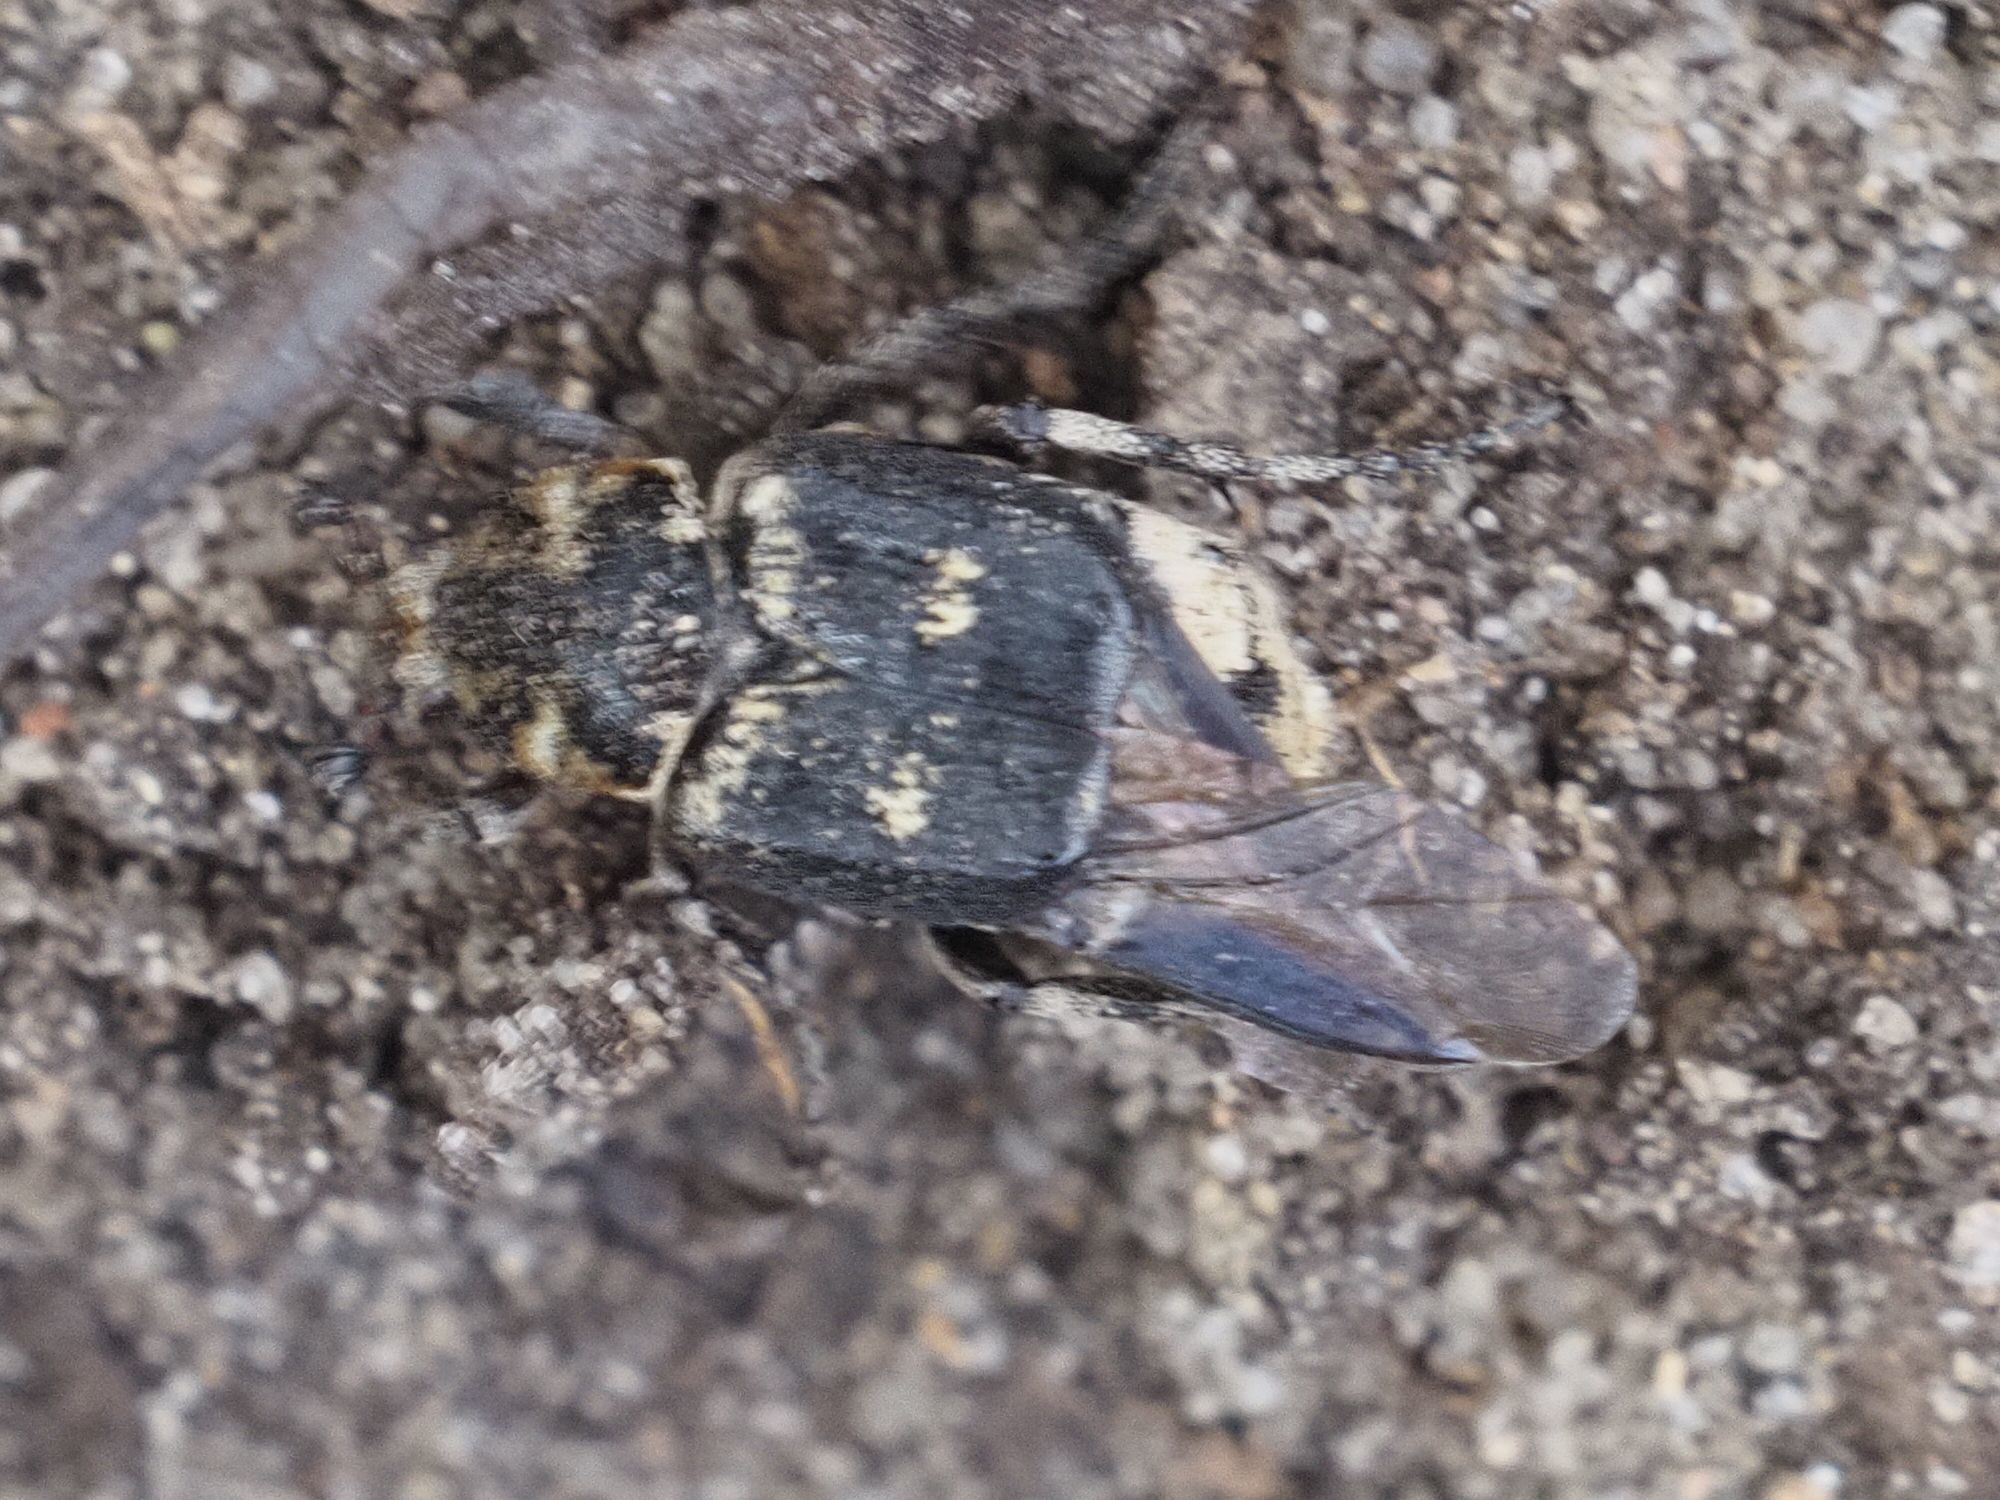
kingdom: Animalia
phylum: Arthropoda
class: Insecta
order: Coleoptera
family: Scarabaeidae
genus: Valgus
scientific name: Valgus hemipterus
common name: Bug flower chafer
